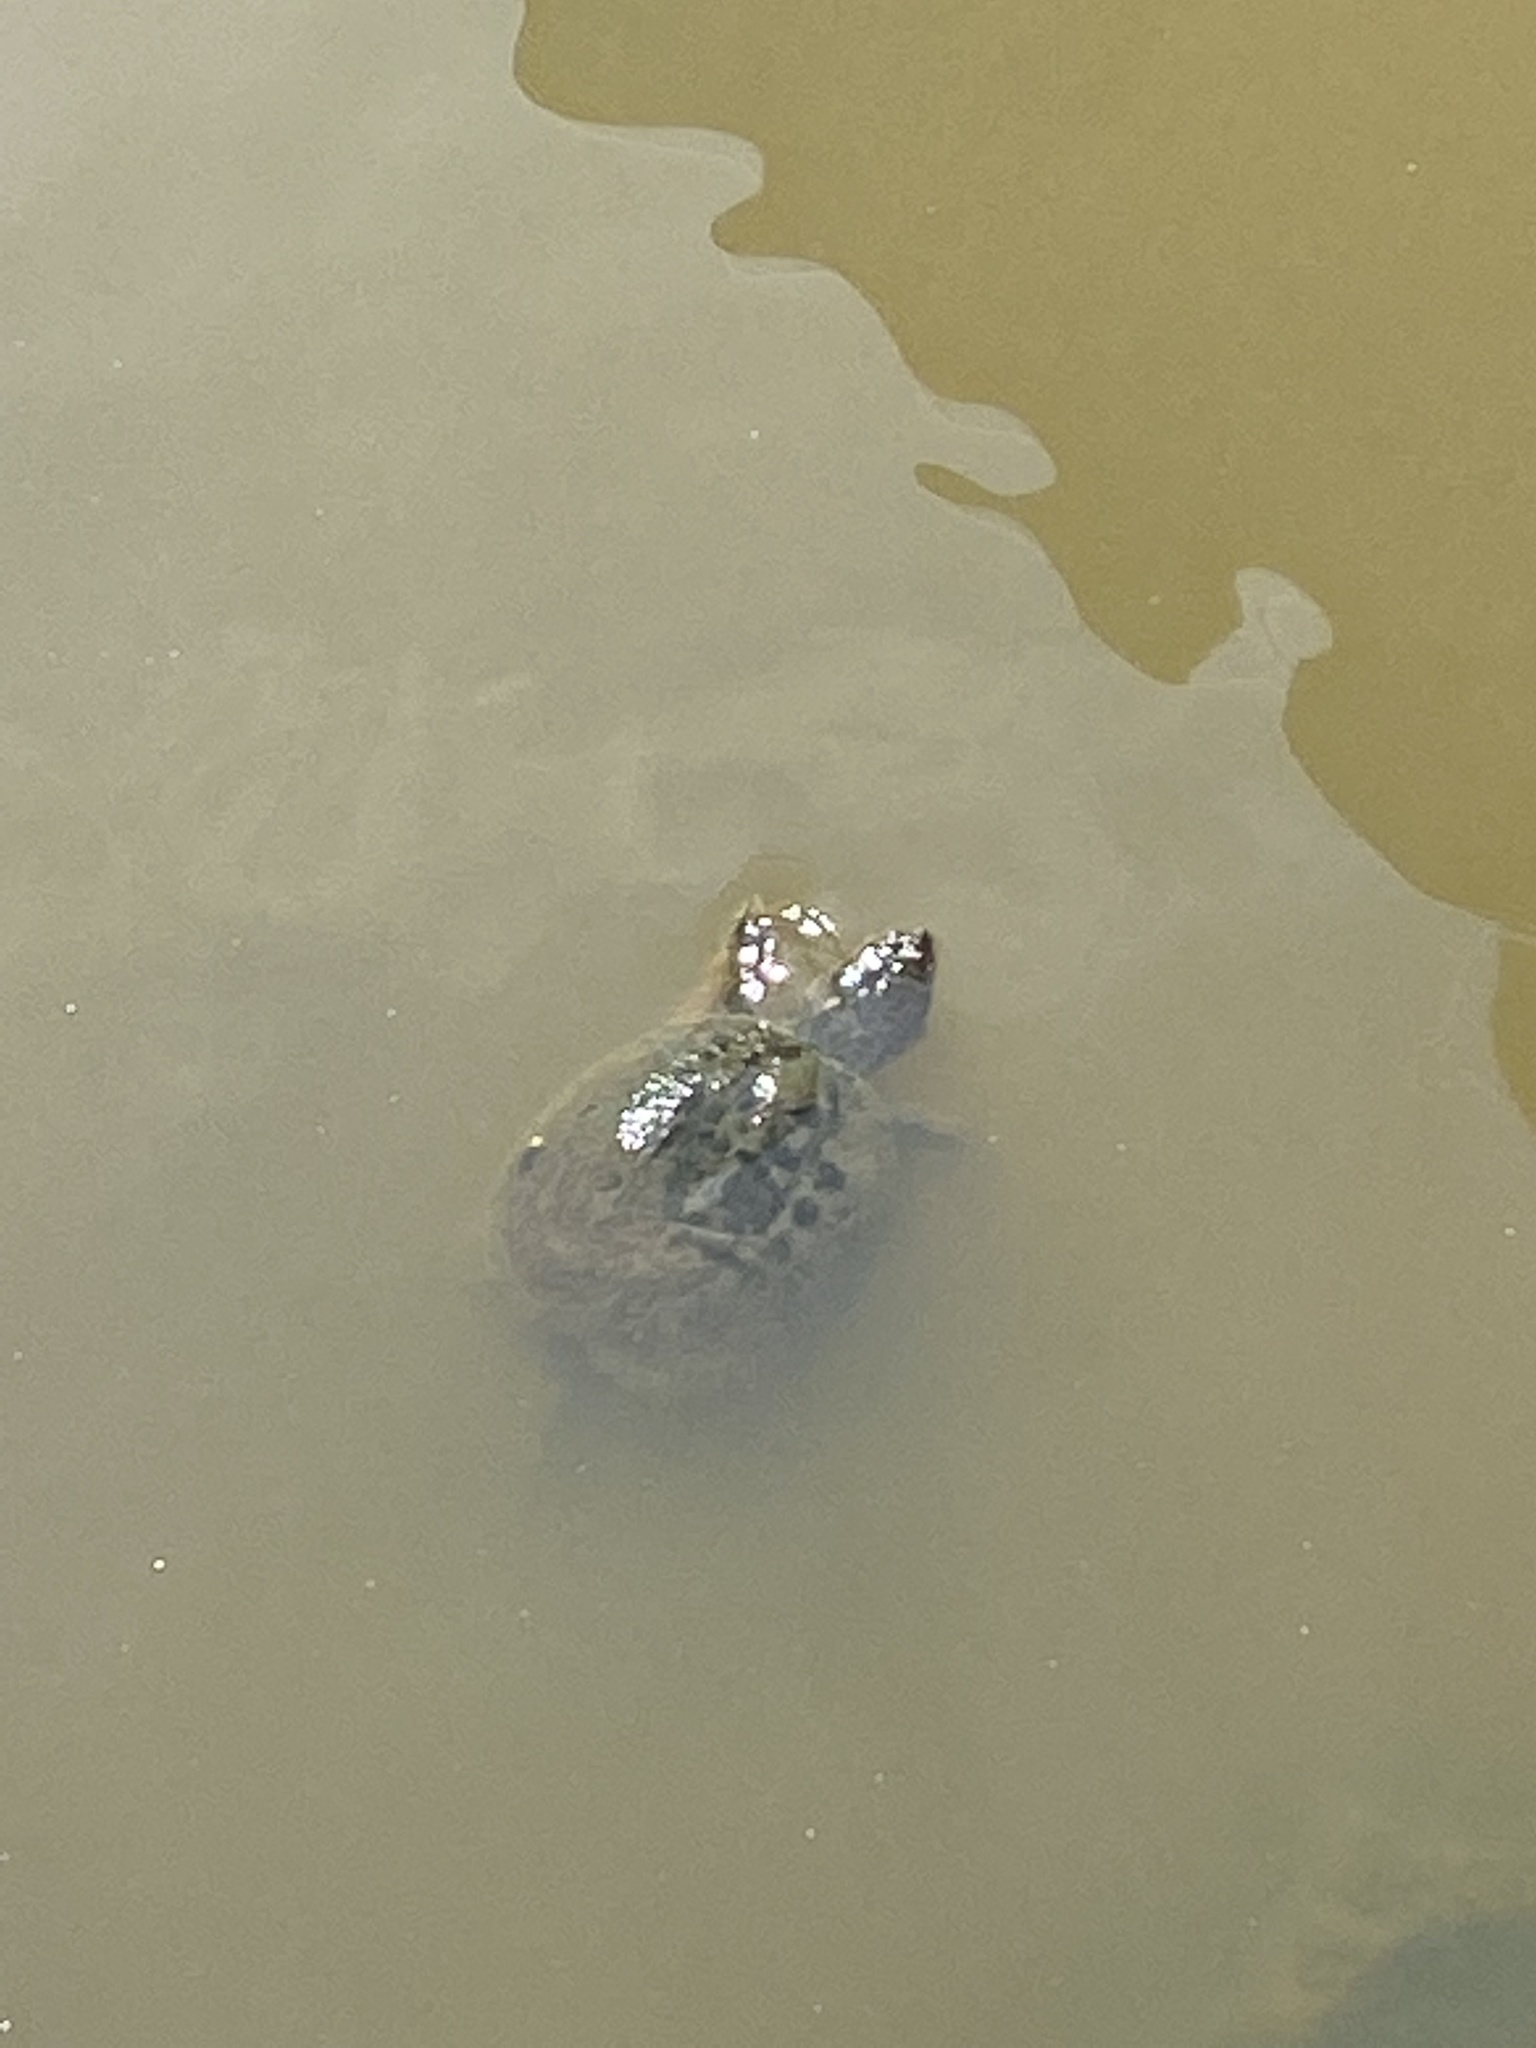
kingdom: Animalia
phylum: Chordata
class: Testudines
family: Chelydridae
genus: Chelydra
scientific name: Chelydra serpentina
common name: Common snapping turtle
